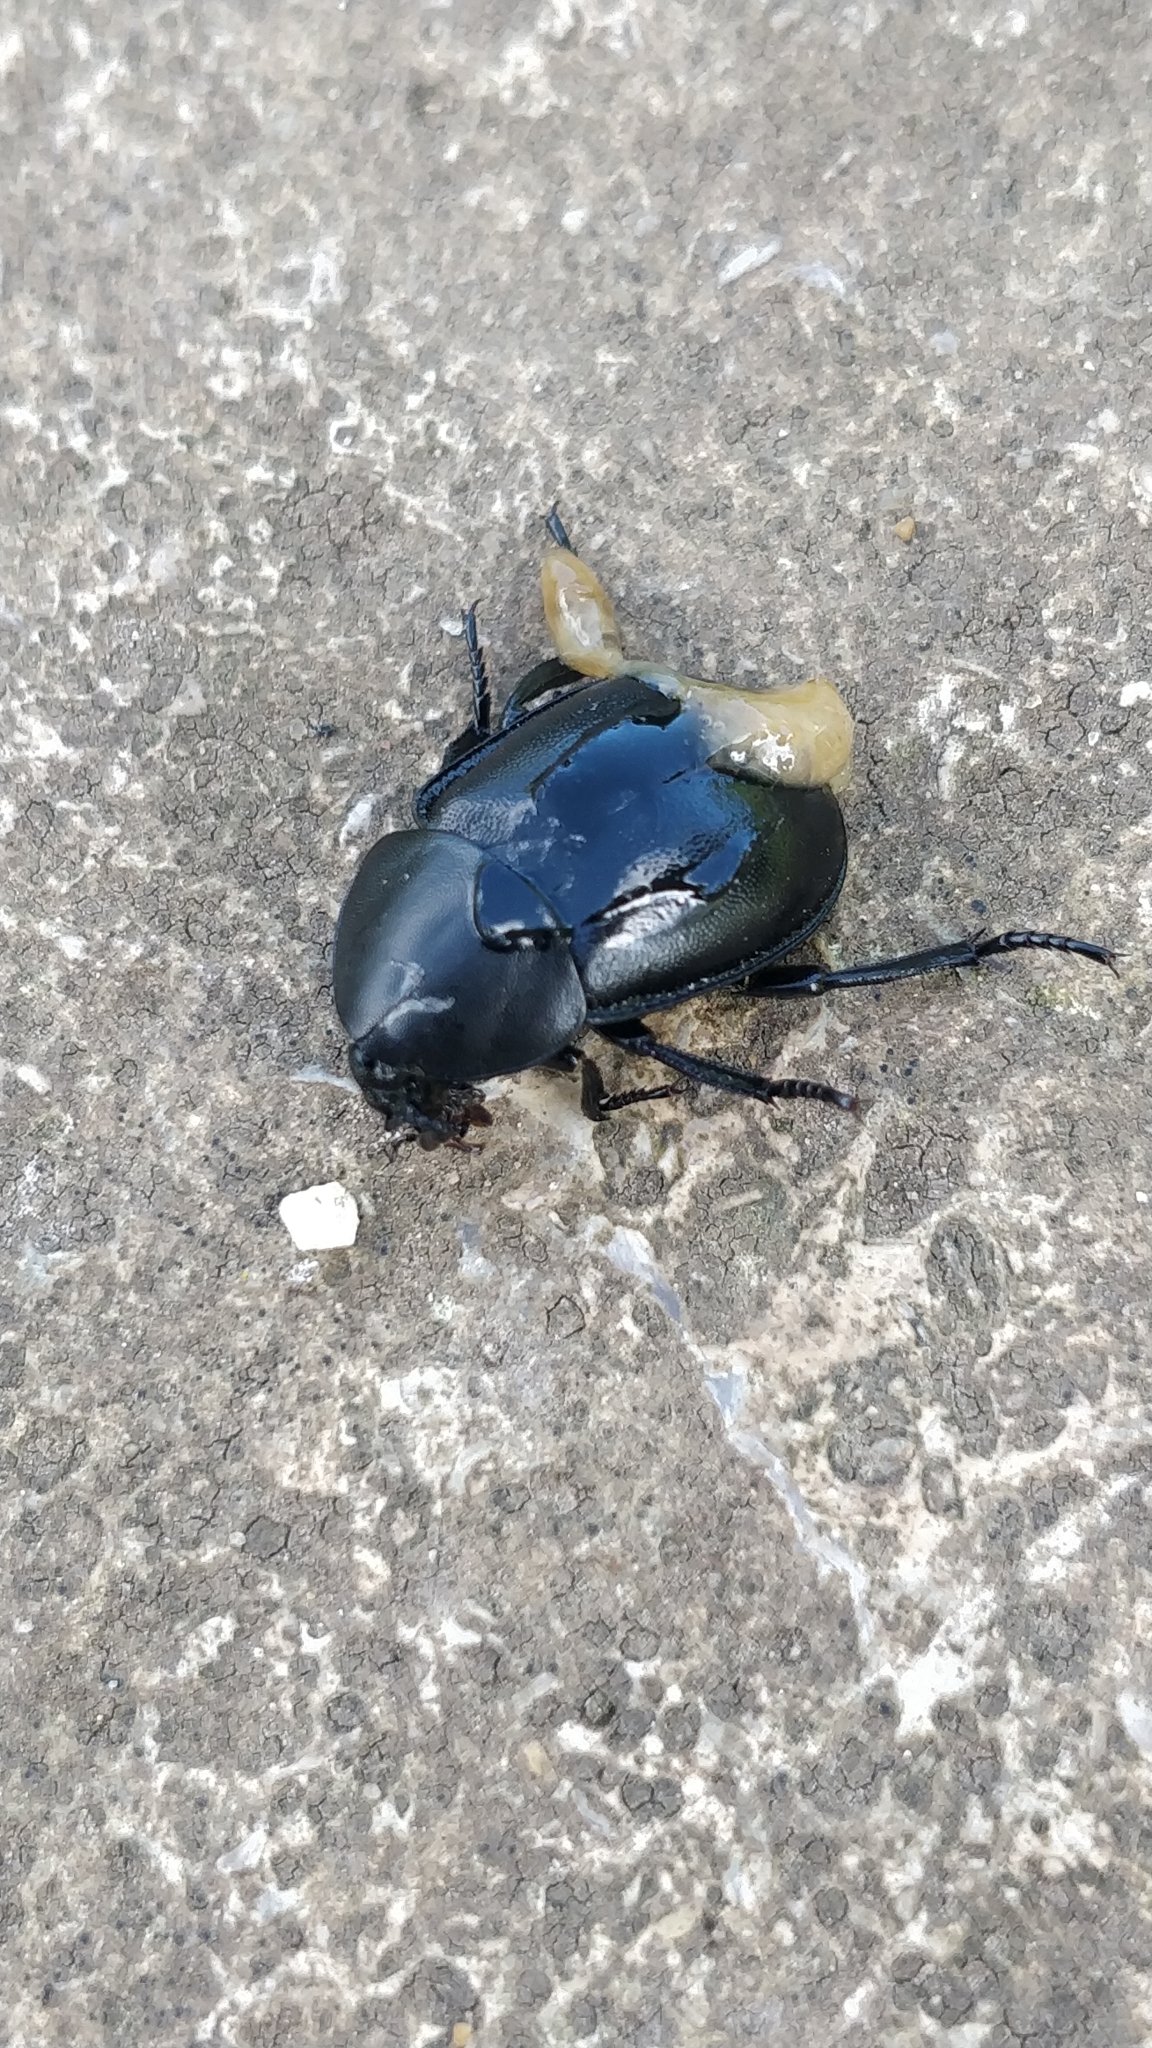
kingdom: Animalia
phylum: Arthropoda
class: Insecta
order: Coleoptera
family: Staphylinidae
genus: Silpha
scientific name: Silpha laevigata
